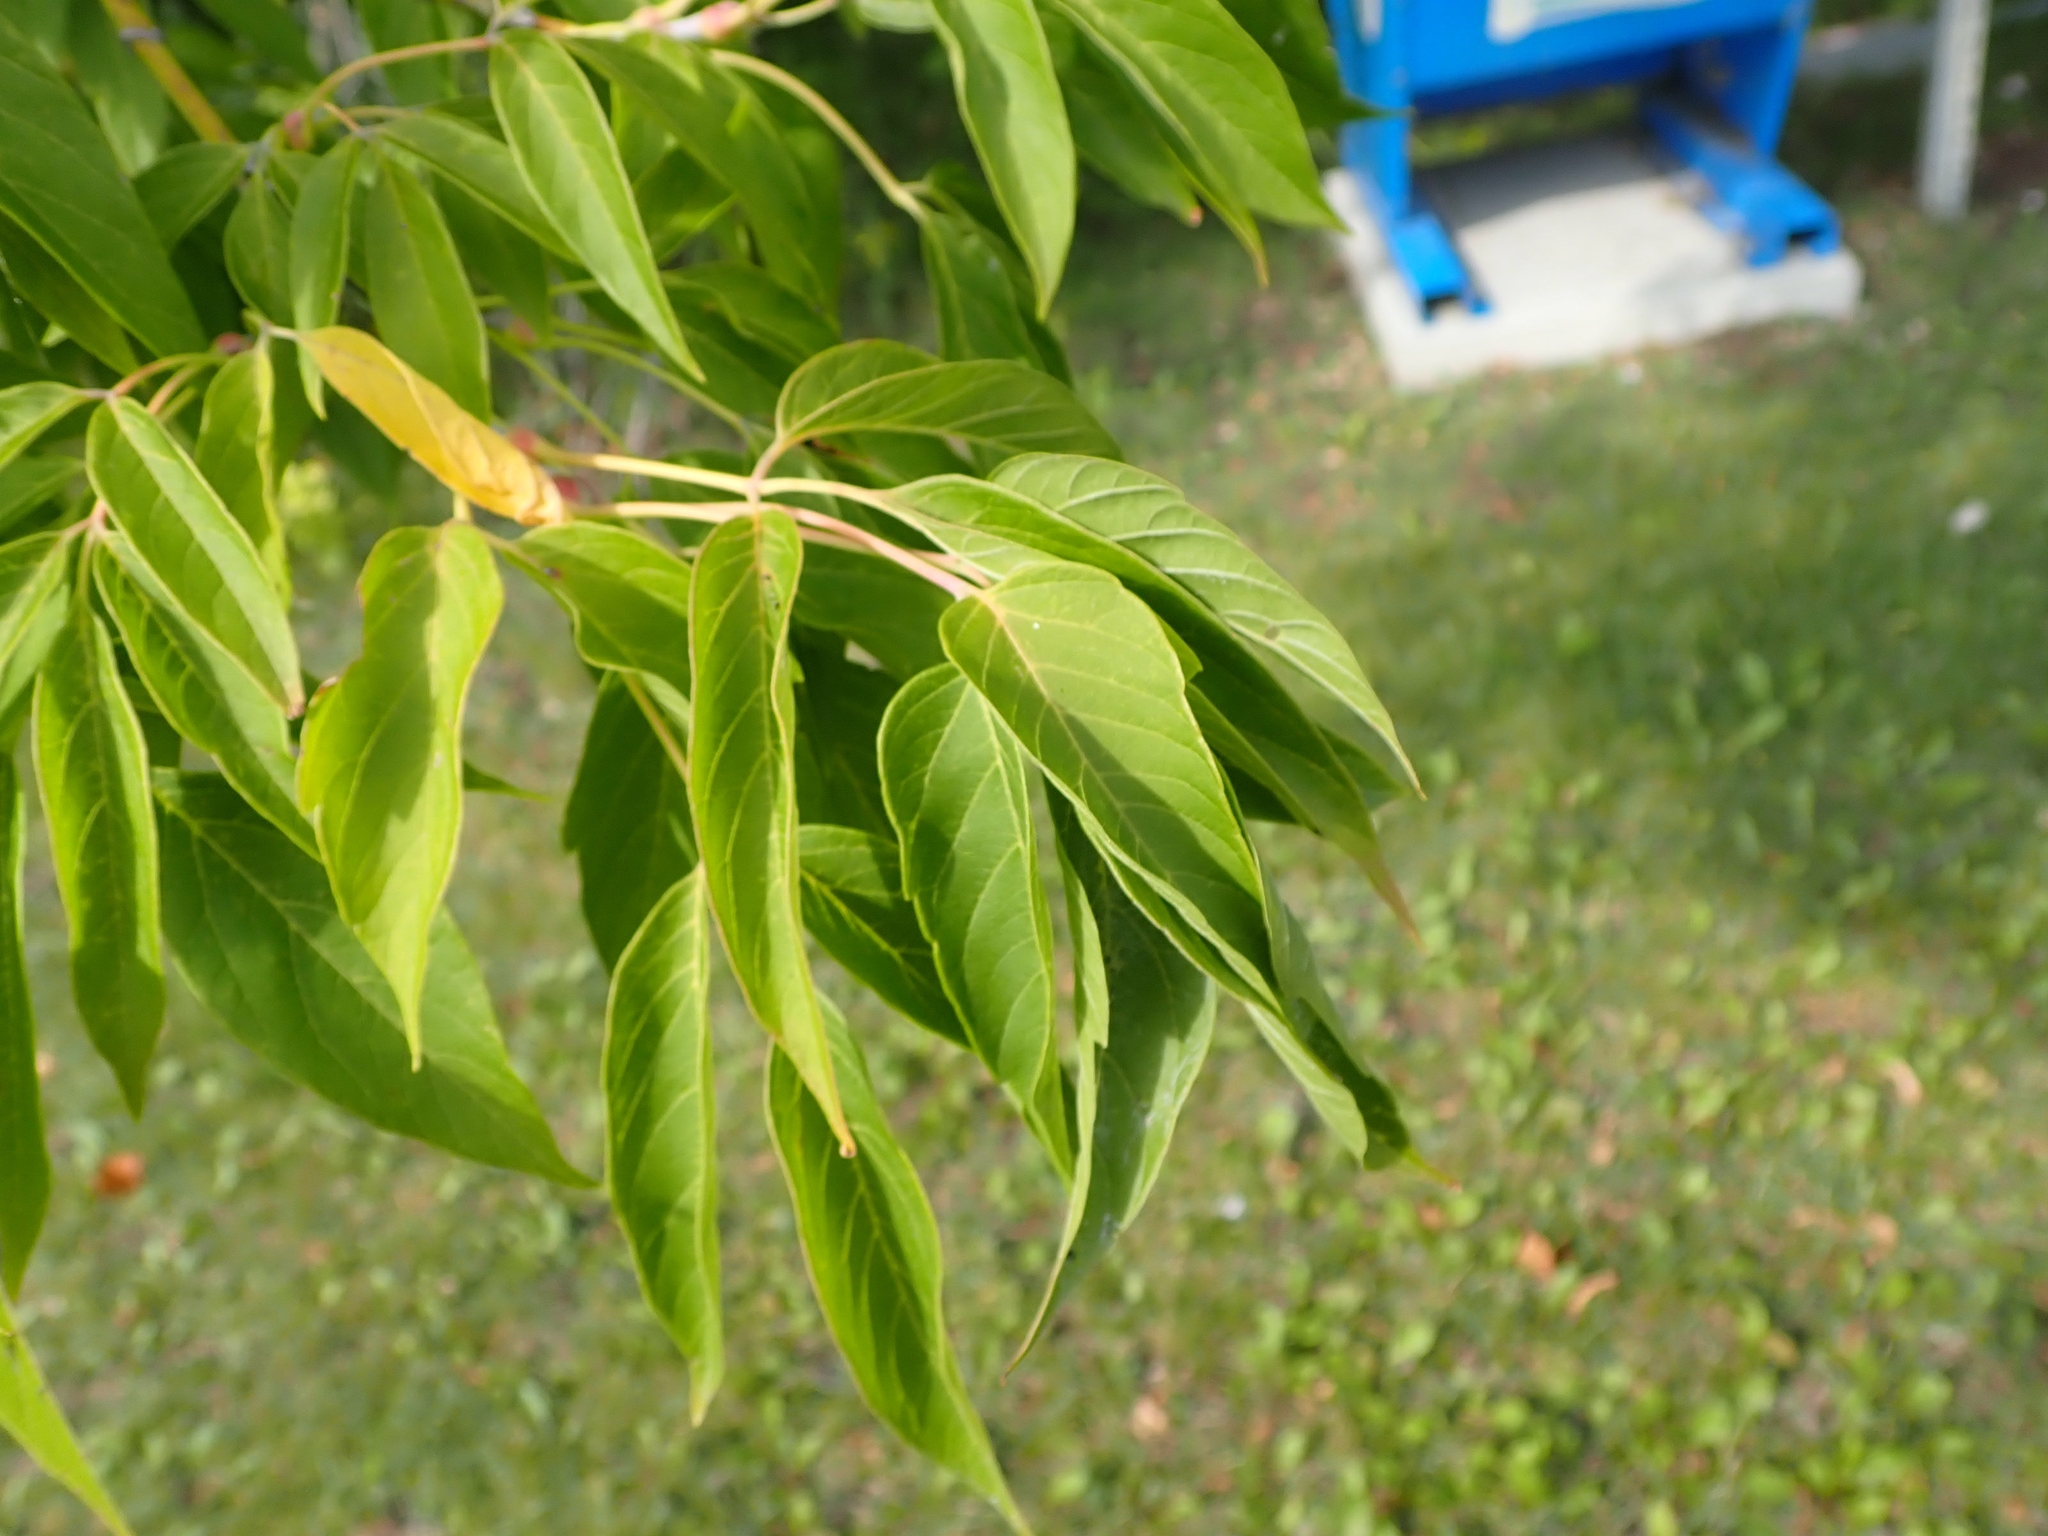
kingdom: Plantae
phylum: Tracheophyta
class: Magnoliopsida
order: Sapindales
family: Sapindaceae
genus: Acer
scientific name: Acer negundo
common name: Ashleaf maple
